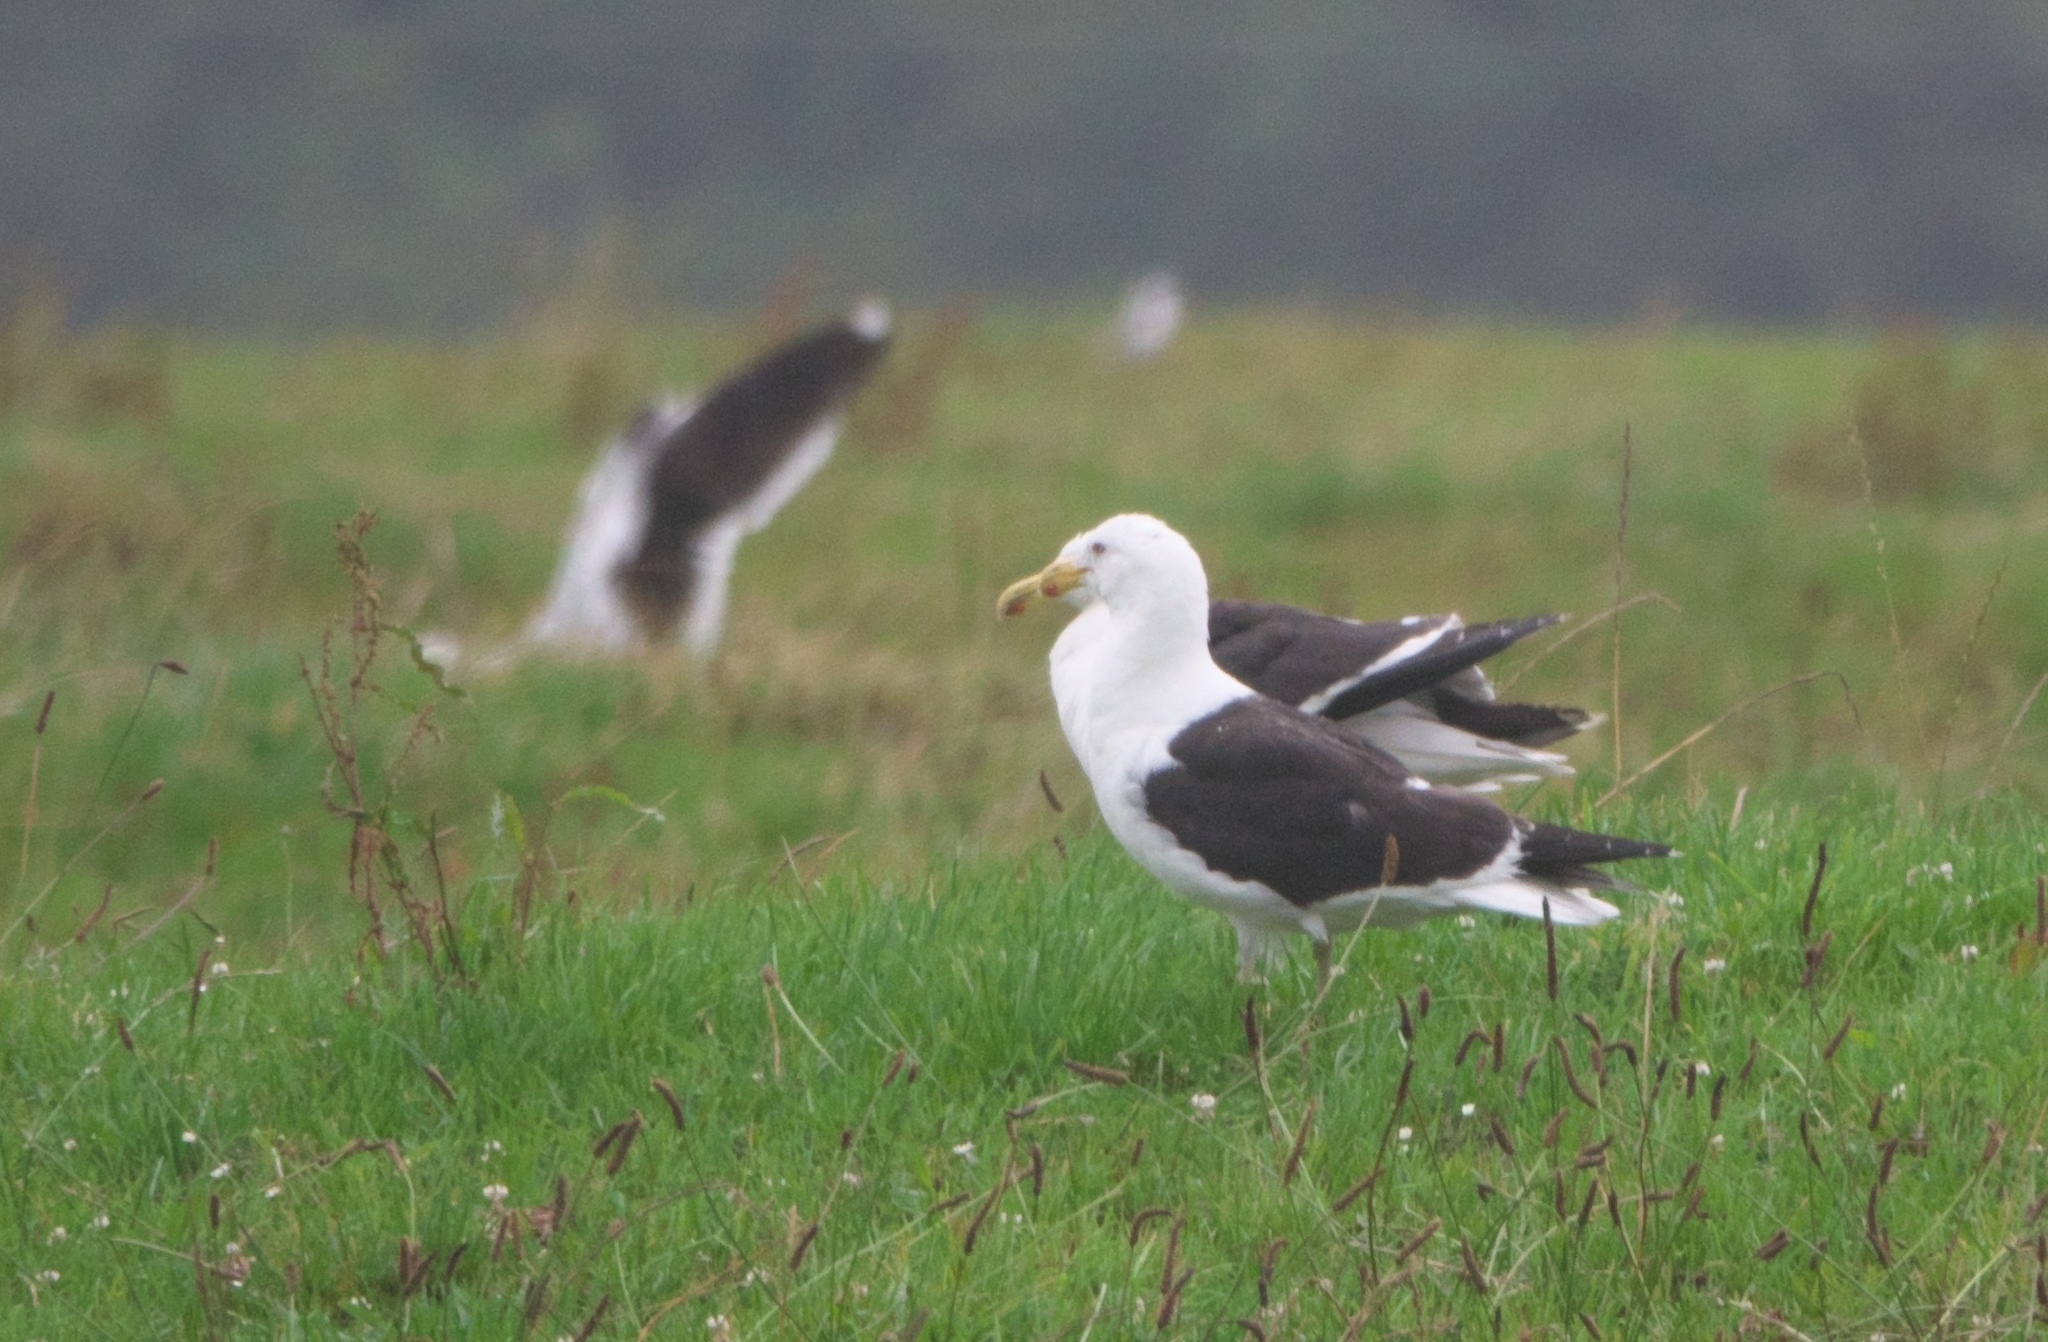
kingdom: Animalia
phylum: Chordata
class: Aves
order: Charadriiformes
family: Laridae
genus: Larus
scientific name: Larus dominicanus
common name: Kelp gull
